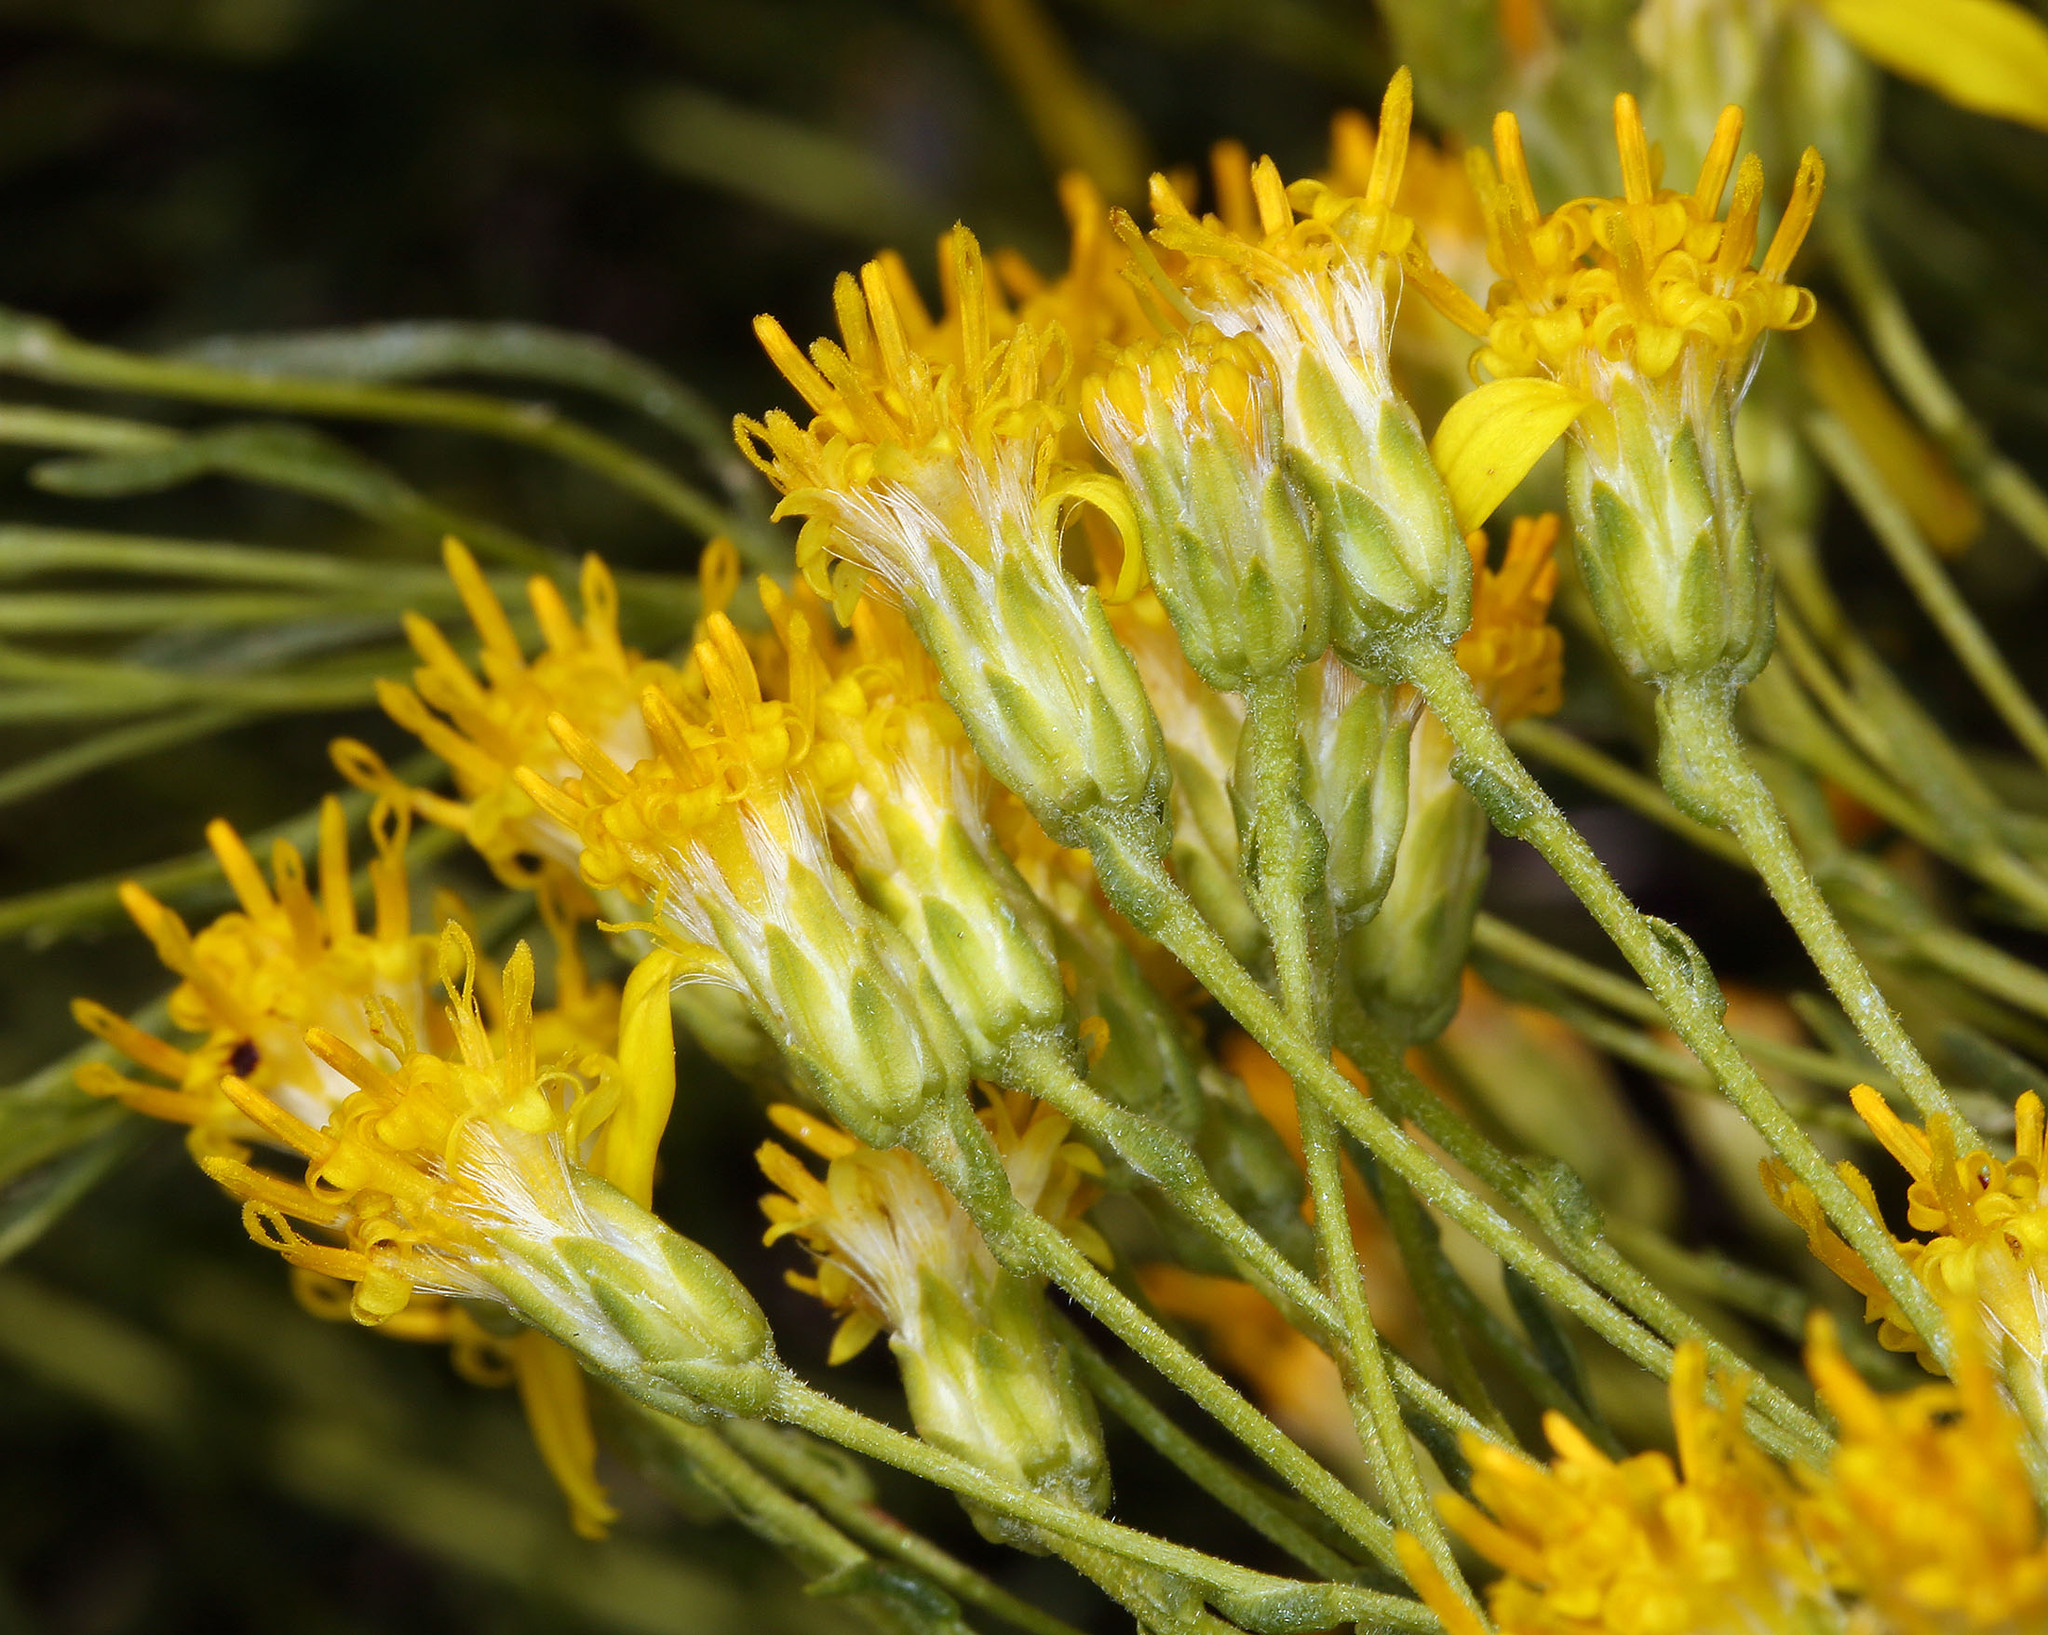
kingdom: Plantae
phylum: Tracheophyta
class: Magnoliopsida
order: Asterales
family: Asteraceae
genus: Ericameria
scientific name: Ericameria cooperi
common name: Cooper's goldenbush
